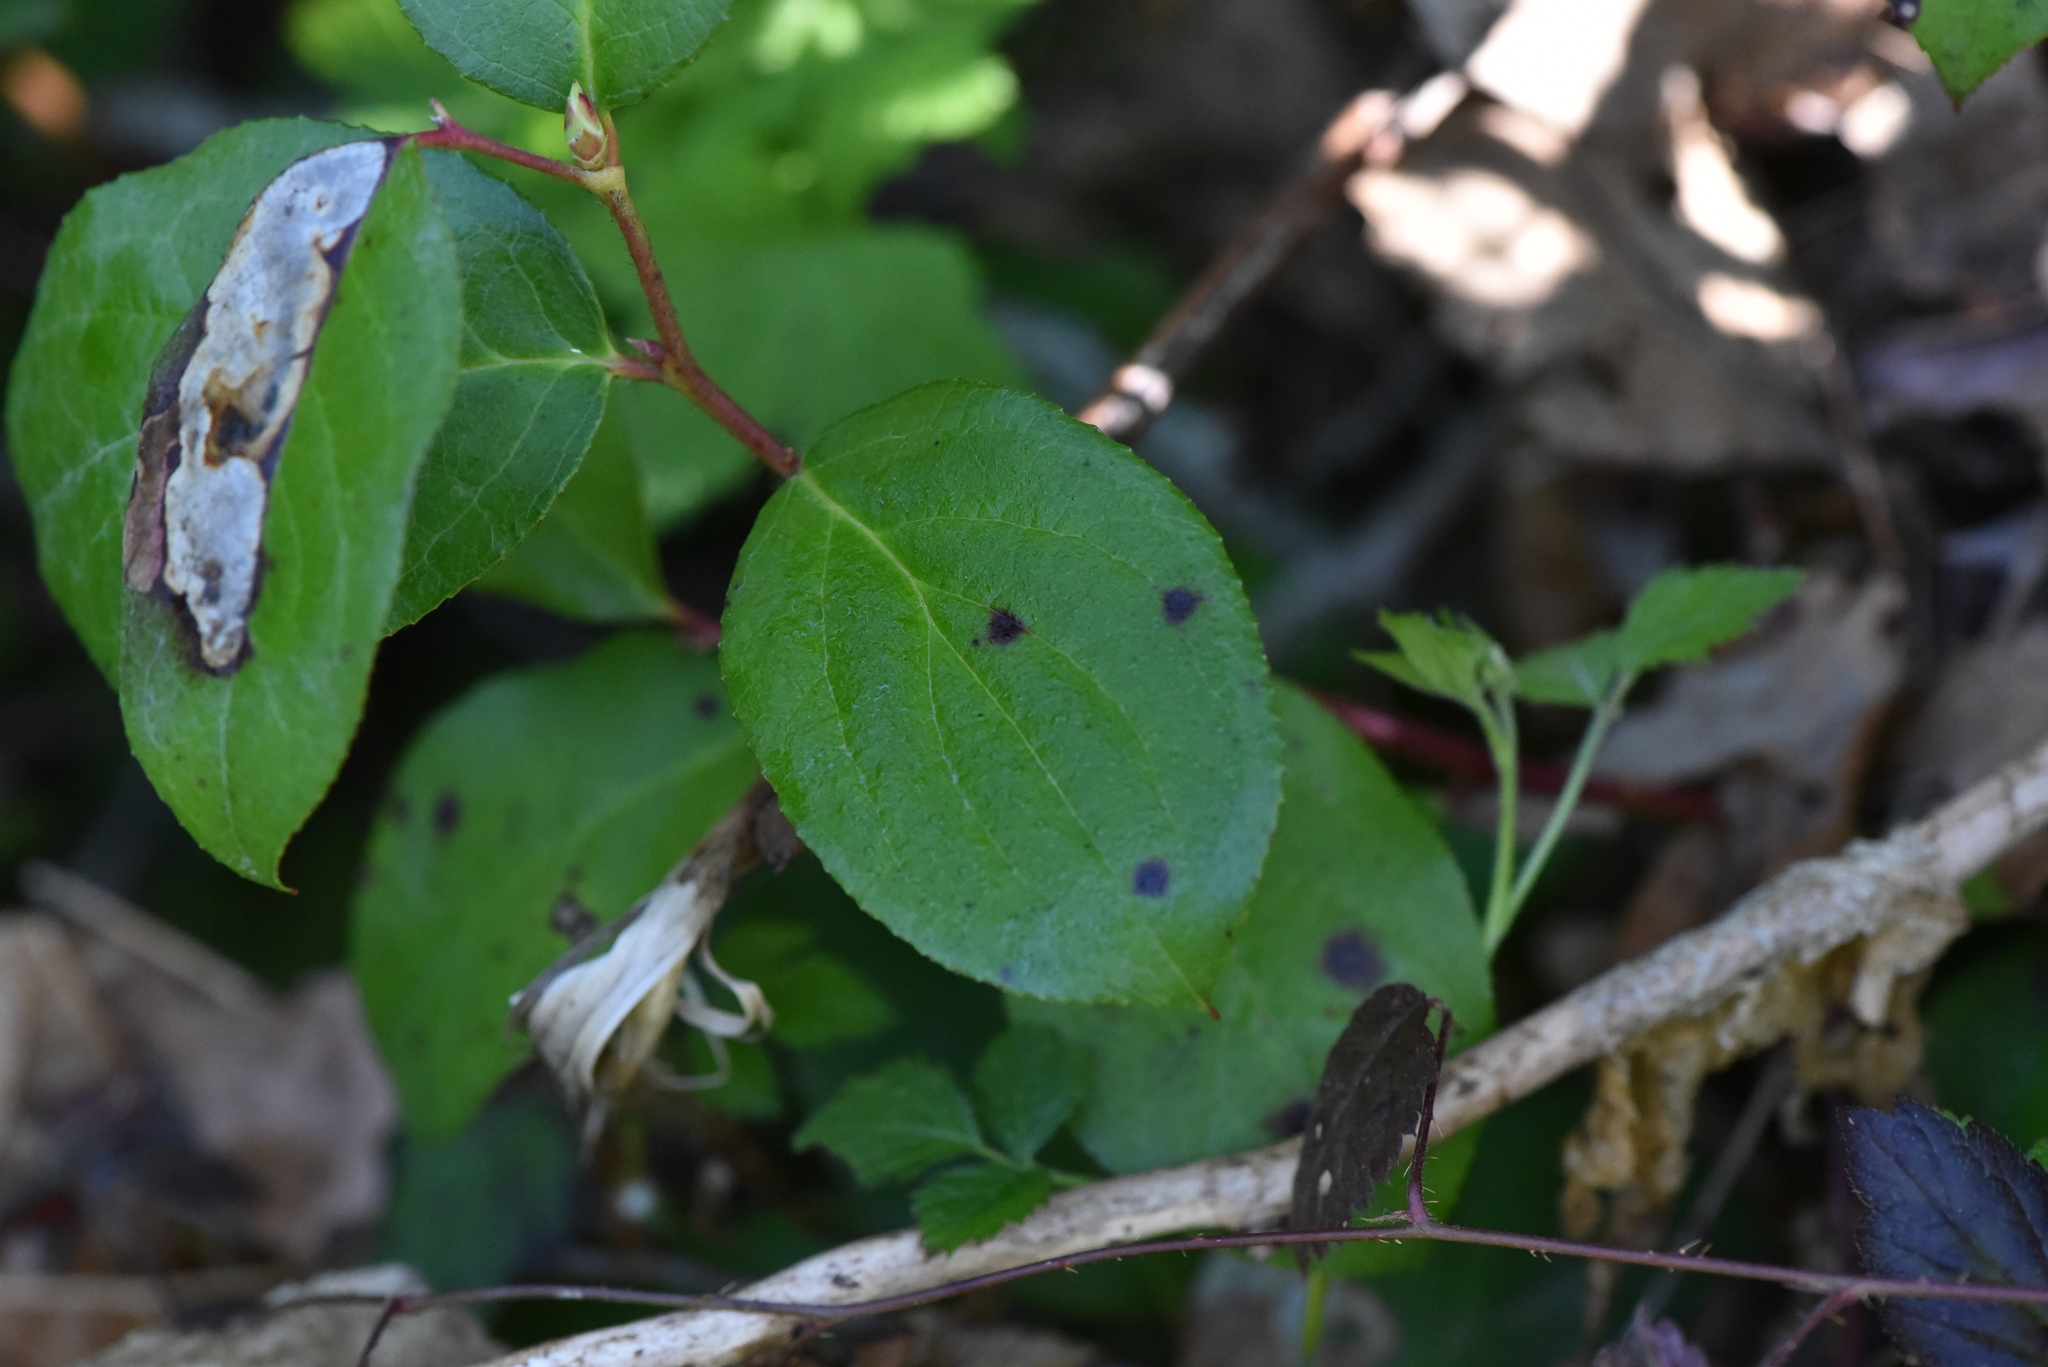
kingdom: Plantae
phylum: Tracheophyta
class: Magnoliopsida
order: Ericales
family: Ericaceae
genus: Gaultheria
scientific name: Gaultheria shallon
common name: Shallon
